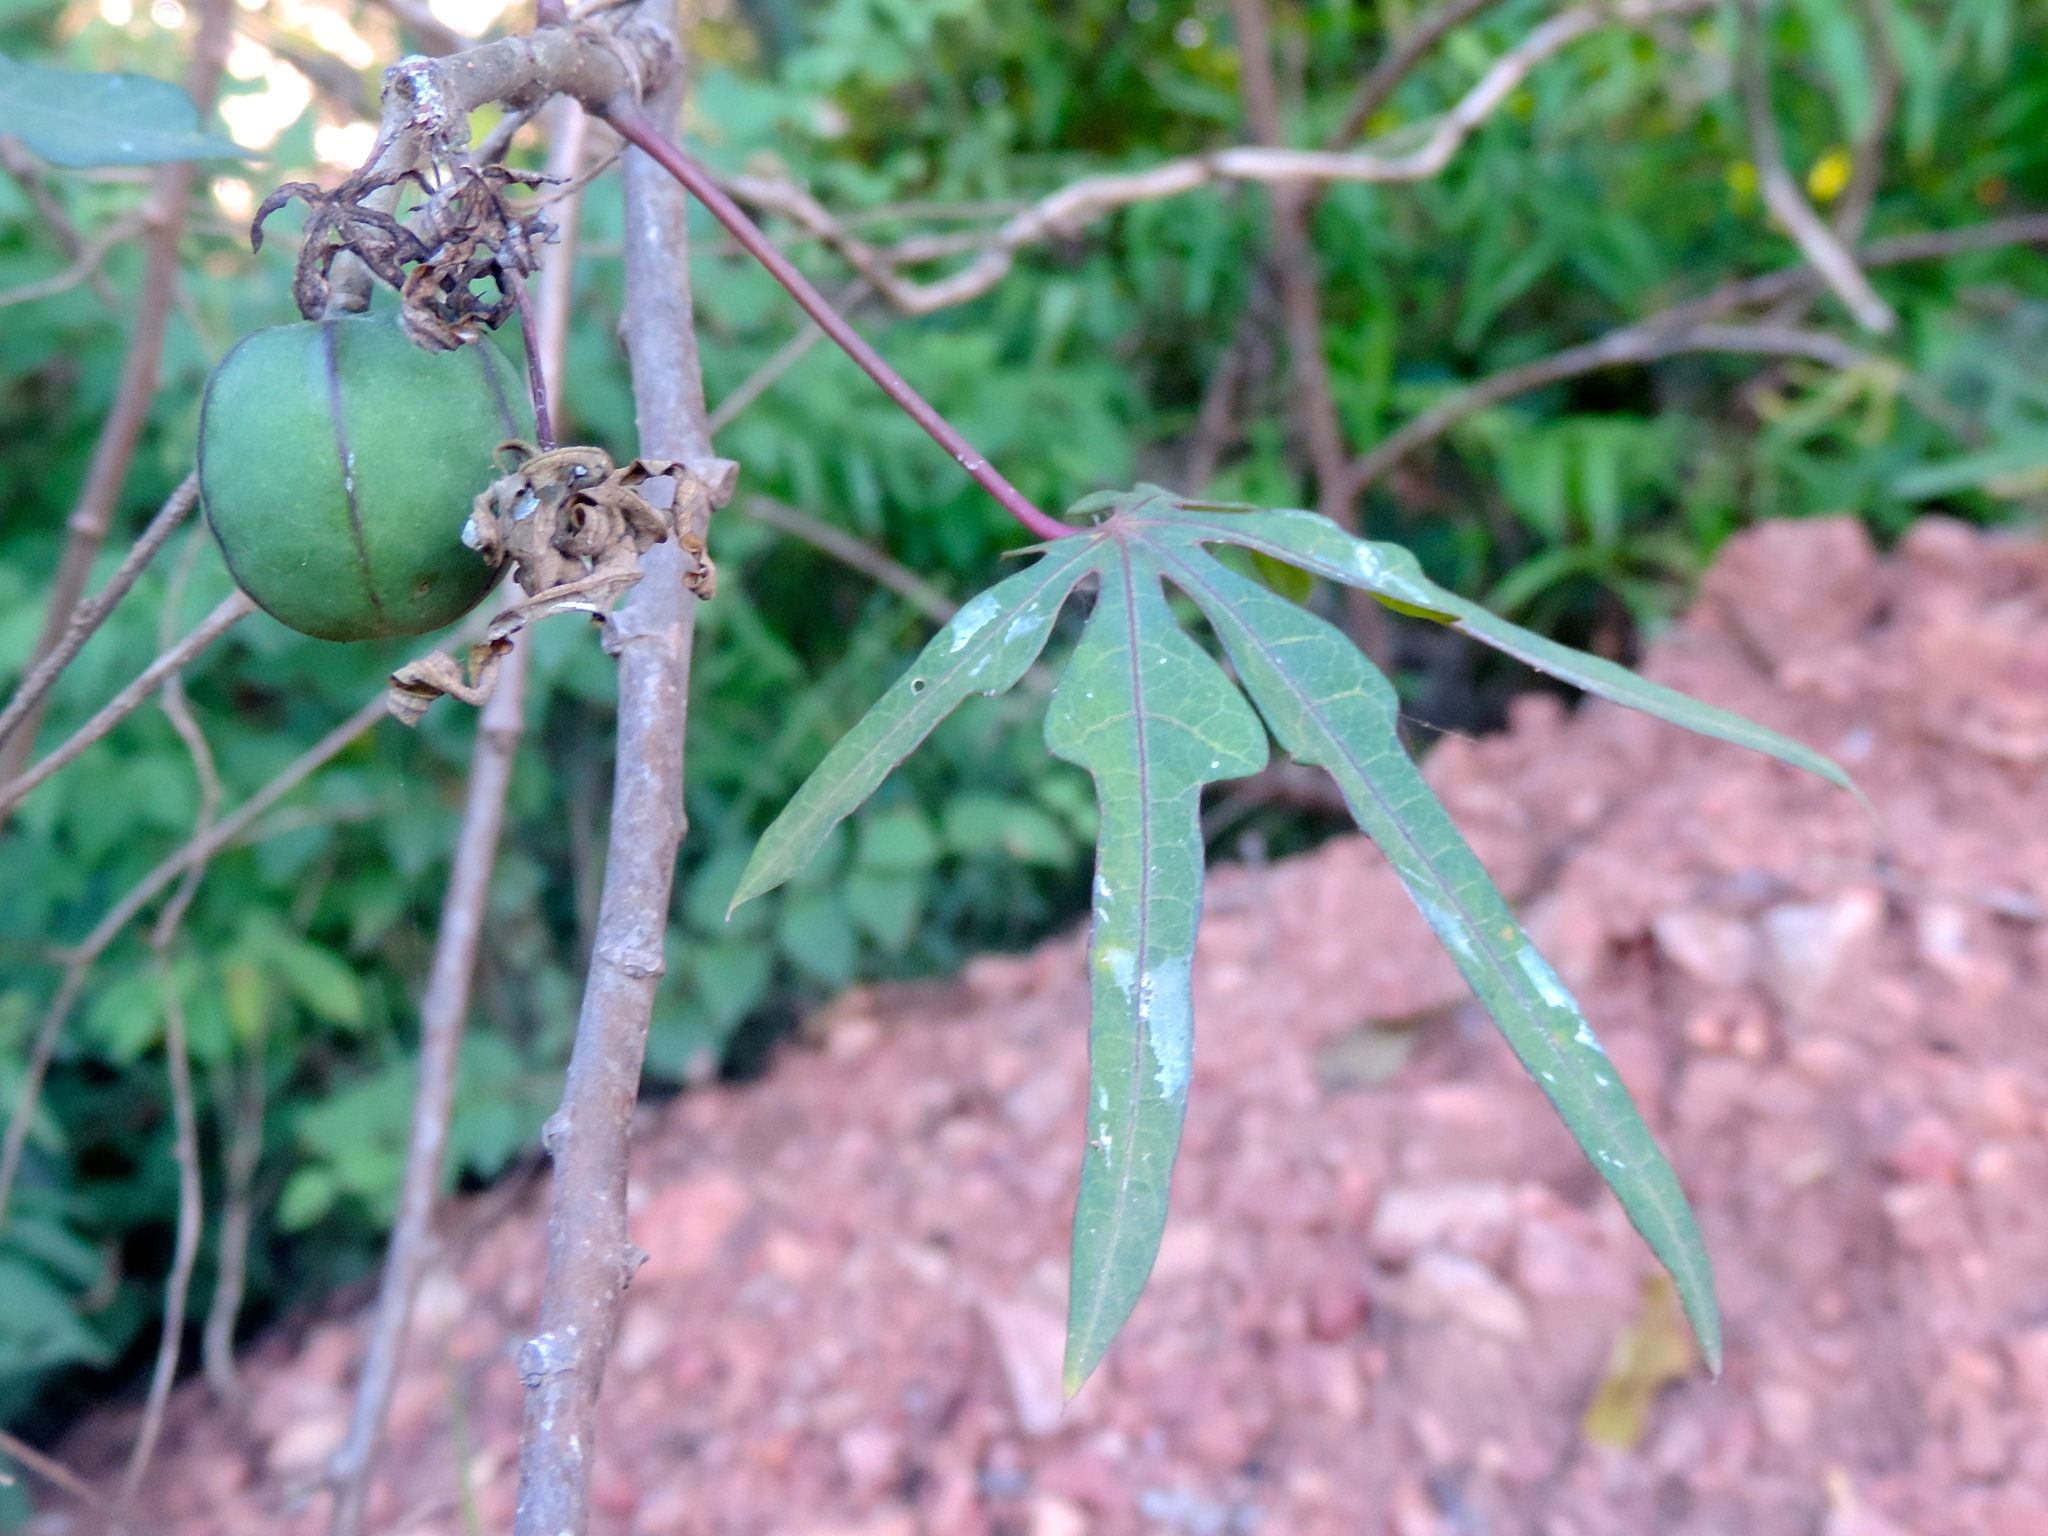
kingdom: Plantae
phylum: Tracheophyta
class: Magnoliopsida
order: Malpighiales
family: Euphorbiaceae
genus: Manihot
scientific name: Manihot angustiloba
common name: Desert mountain manihot
